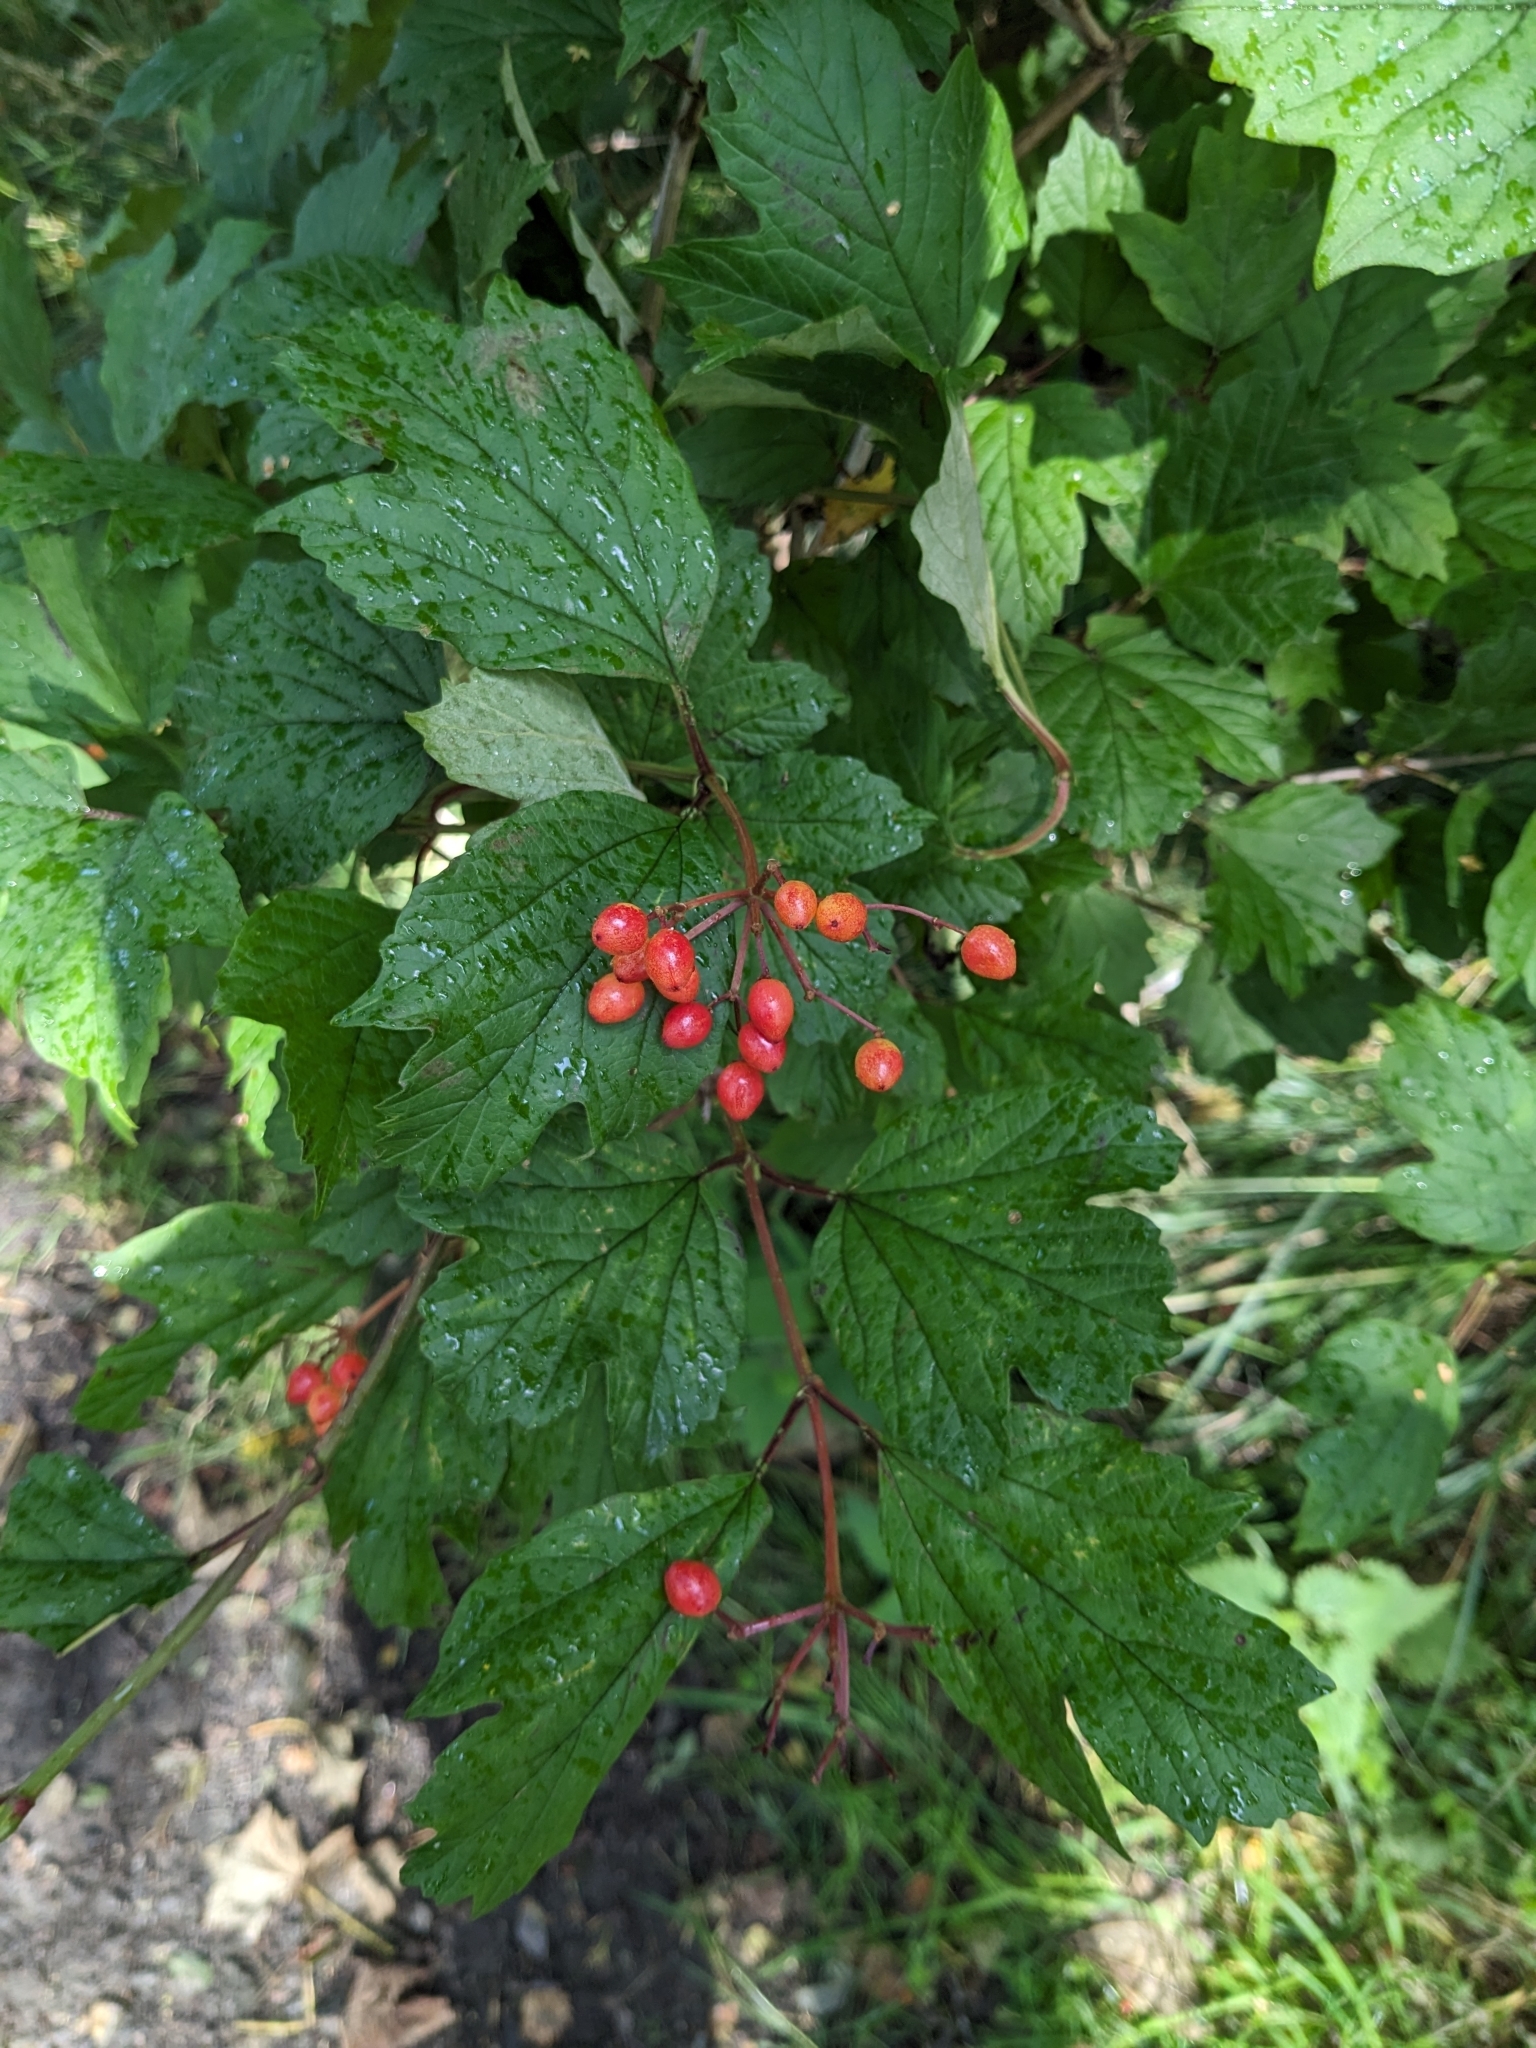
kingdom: Plantae
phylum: Tracheophyta
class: Magnoliopsida
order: Dipsacales
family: Viburnaceae
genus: Viburnum
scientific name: Viburnum opulus
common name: Guelder-rose
